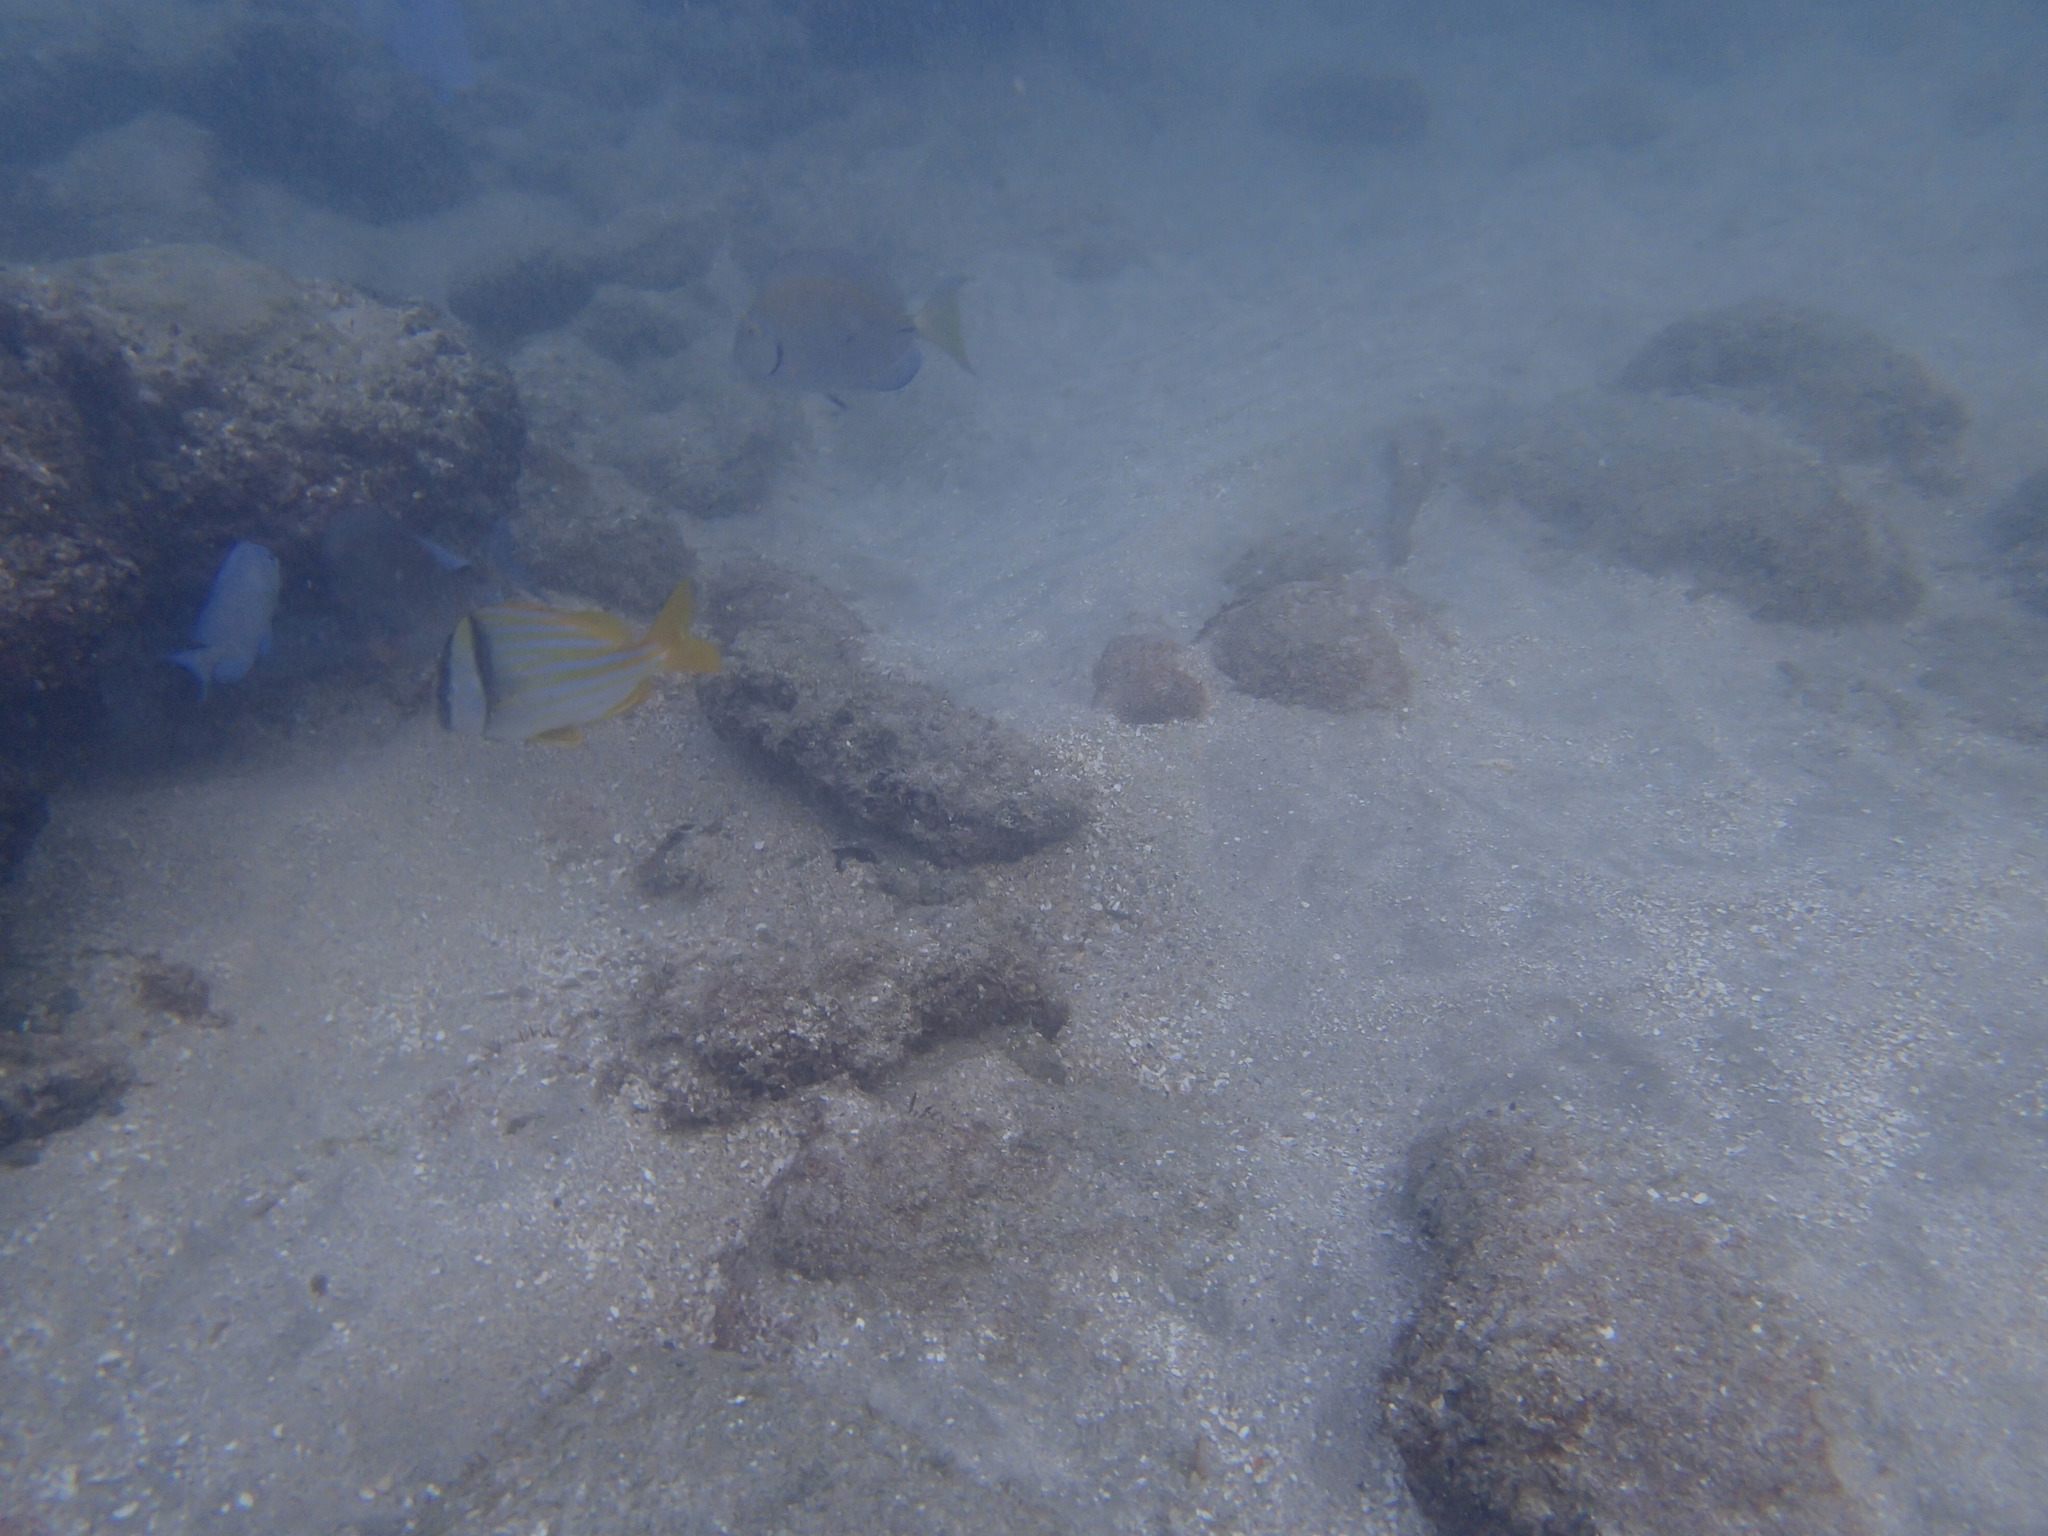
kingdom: Animalia
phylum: Chordata
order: Perciformes
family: Haemulidae
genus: Anisotremus
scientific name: Anisotremus virginicus
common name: Porkfish
